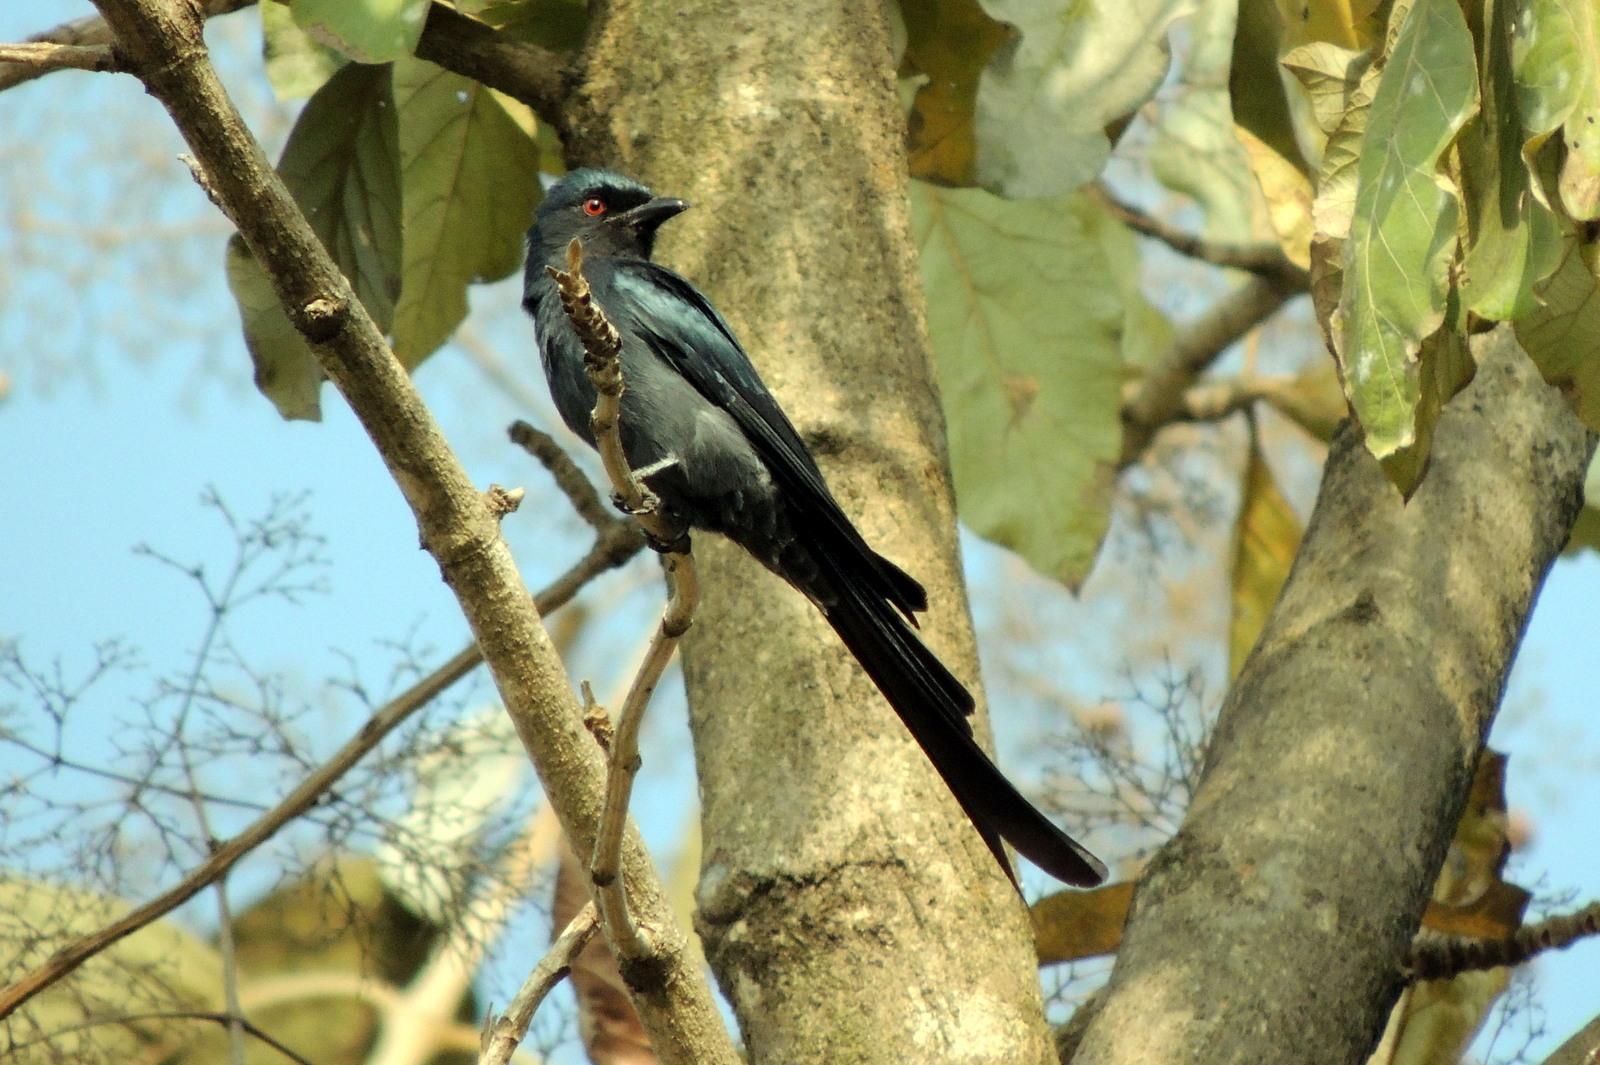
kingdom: Animalia
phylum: Chordata
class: Aves
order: Passeriformes
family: Dicruridae
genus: Dicrurus
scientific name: Dicrurus leucophaeus
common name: Ashy drongo
